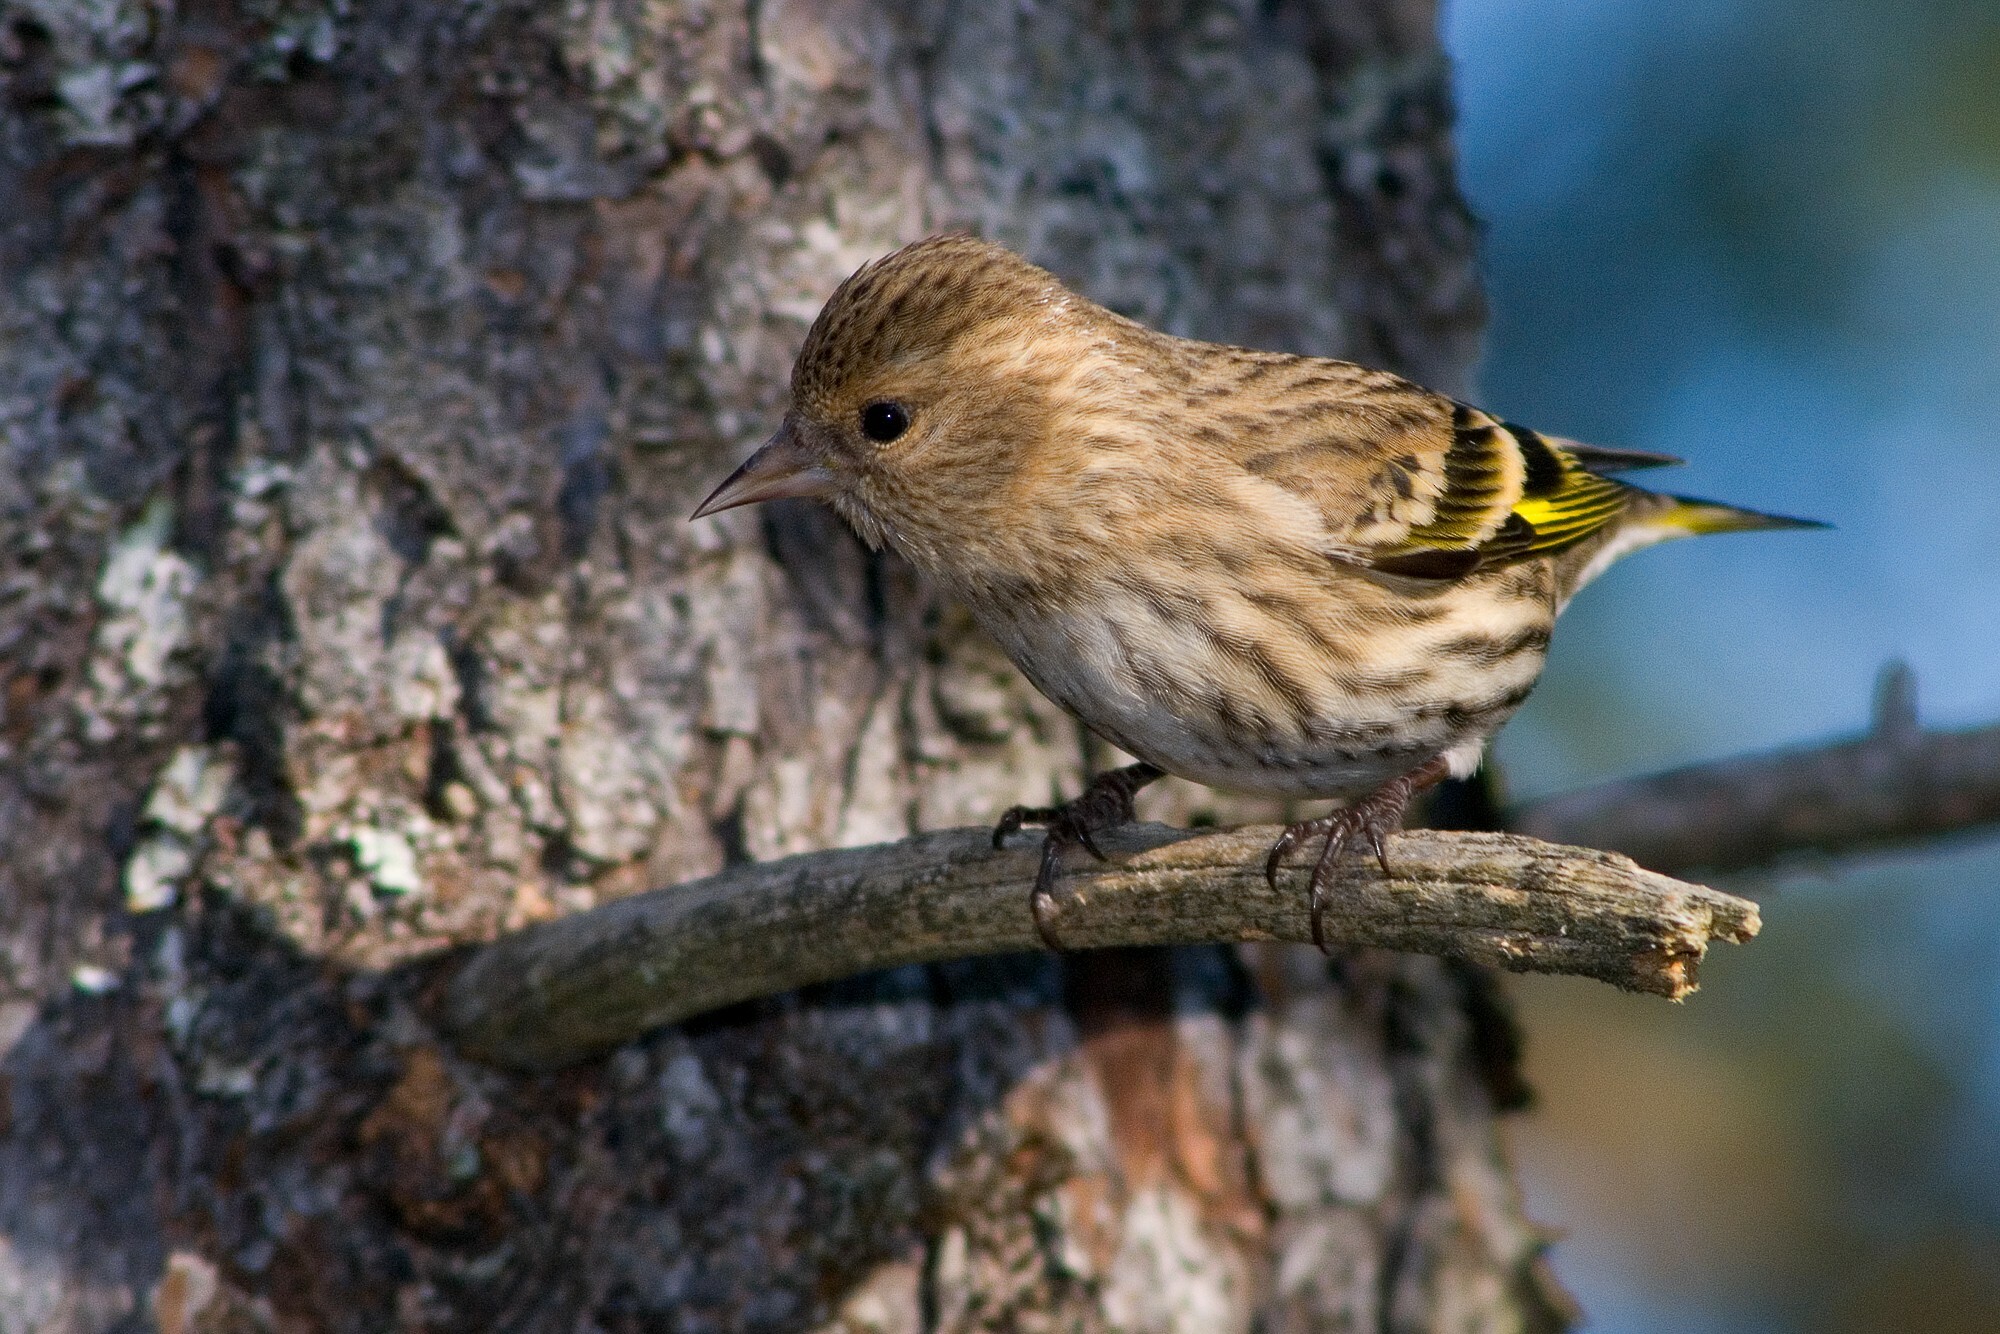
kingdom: Animalia
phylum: Chordata
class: Aves
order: Passeriformes
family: Fringillidae
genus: Spinus
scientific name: Spinus pinus
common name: Pine siskin
